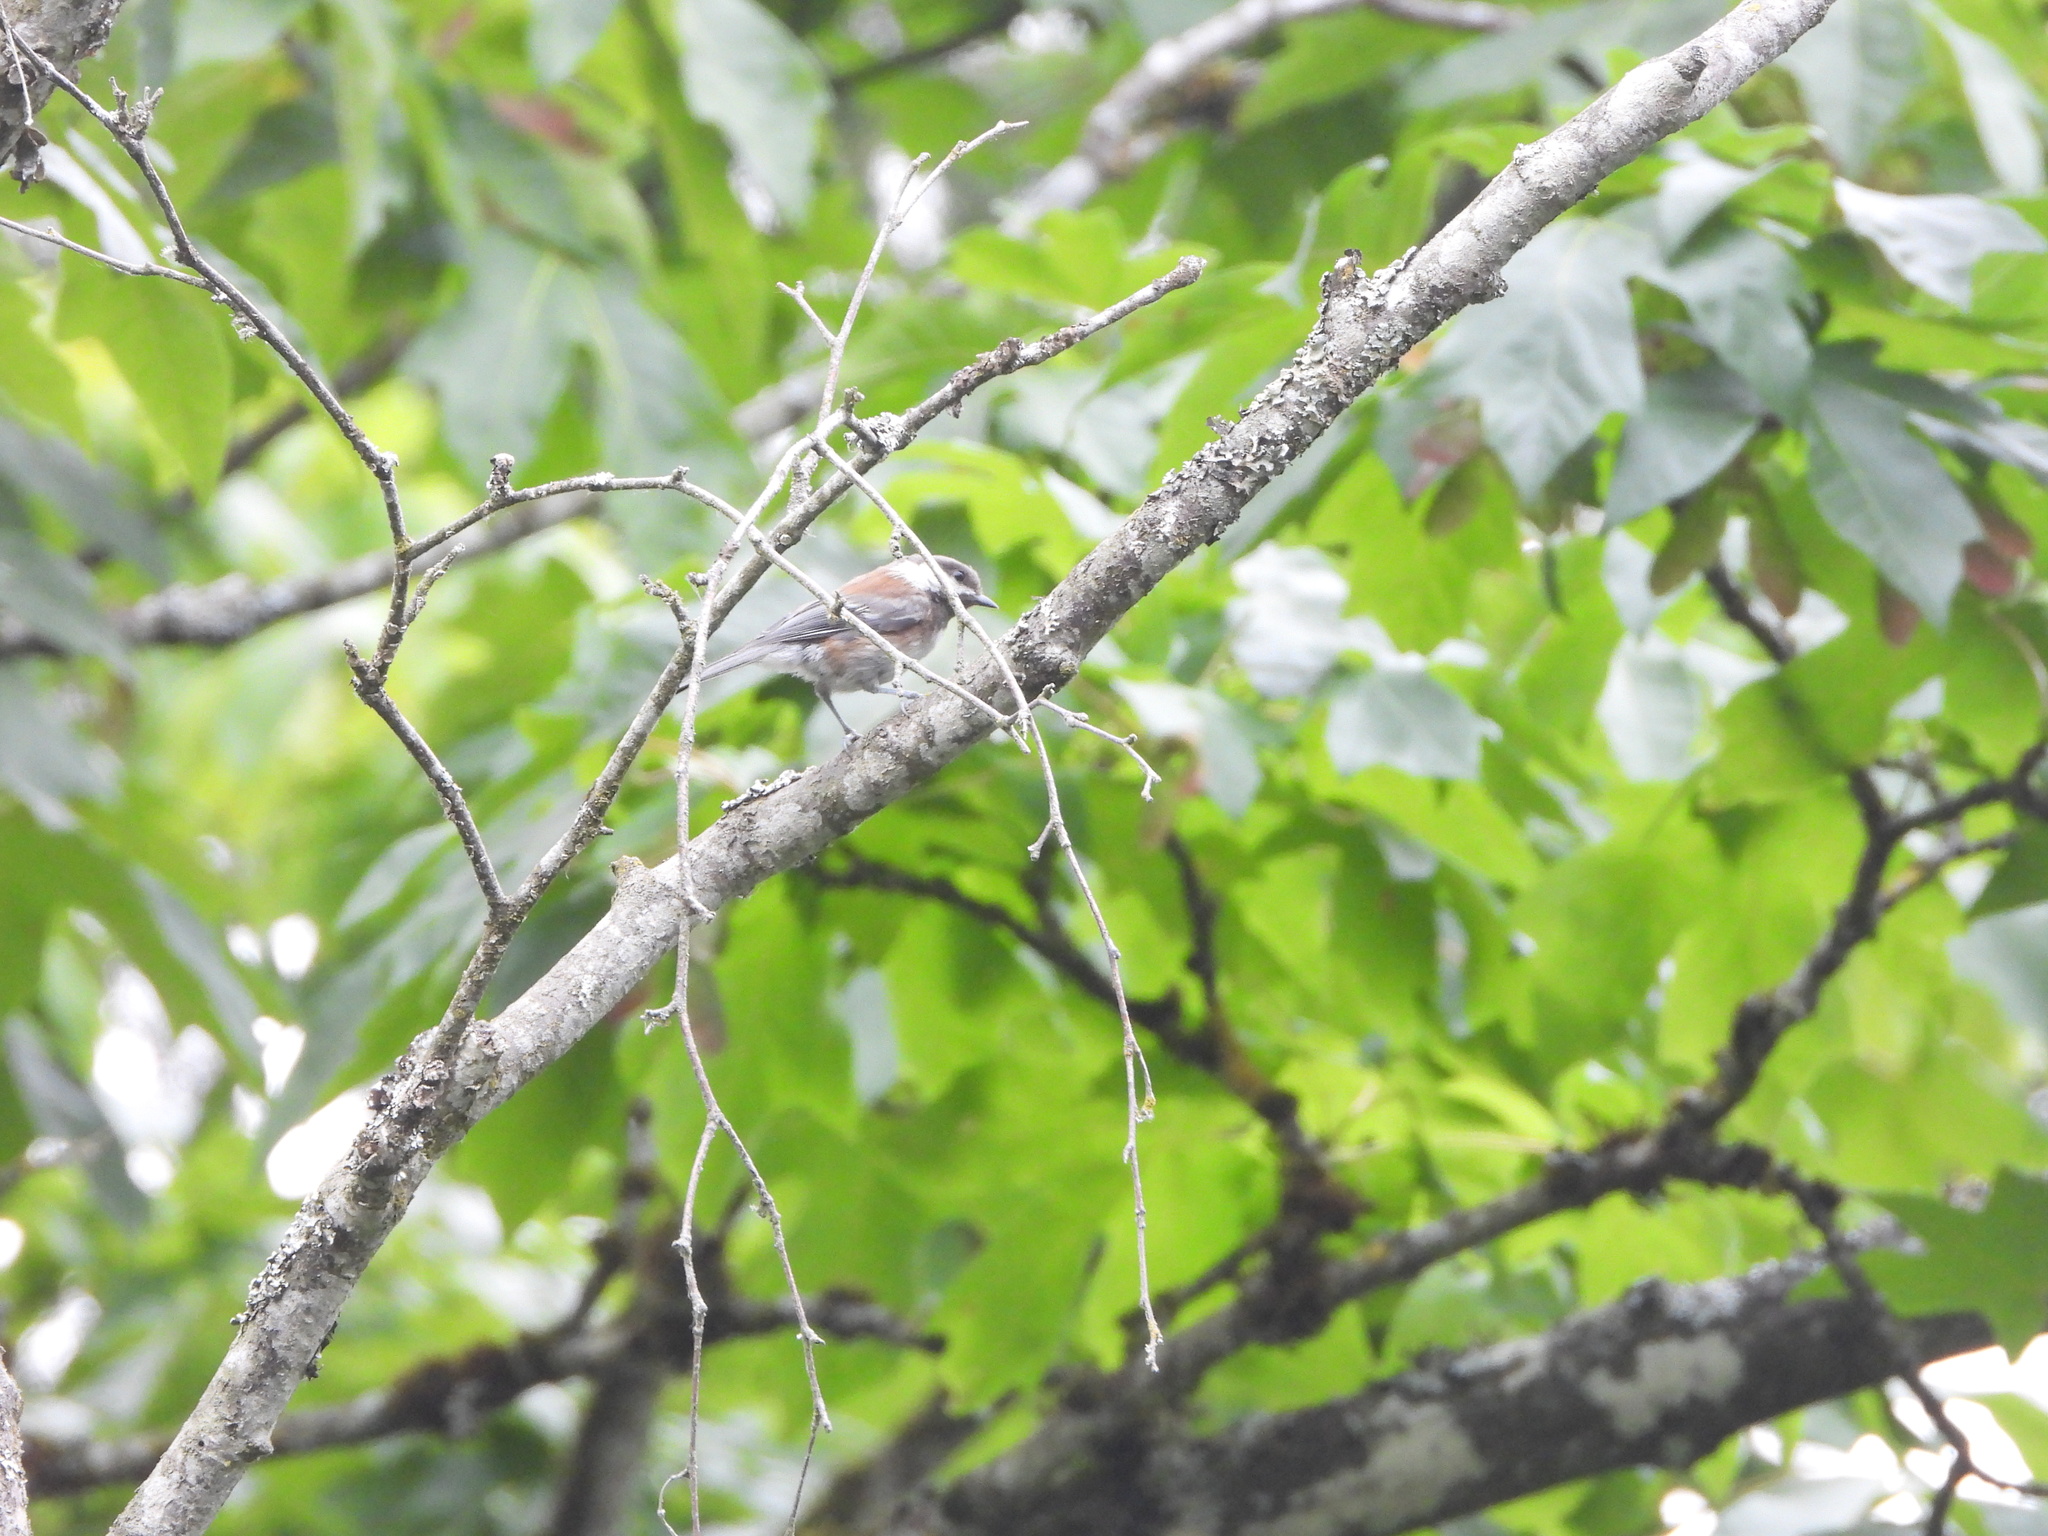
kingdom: Animalia
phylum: Chordata
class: Aves
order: Passeriformes
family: Paridae
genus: Poecile
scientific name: Poecile rufescens
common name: Chestnut-backed chickadee
